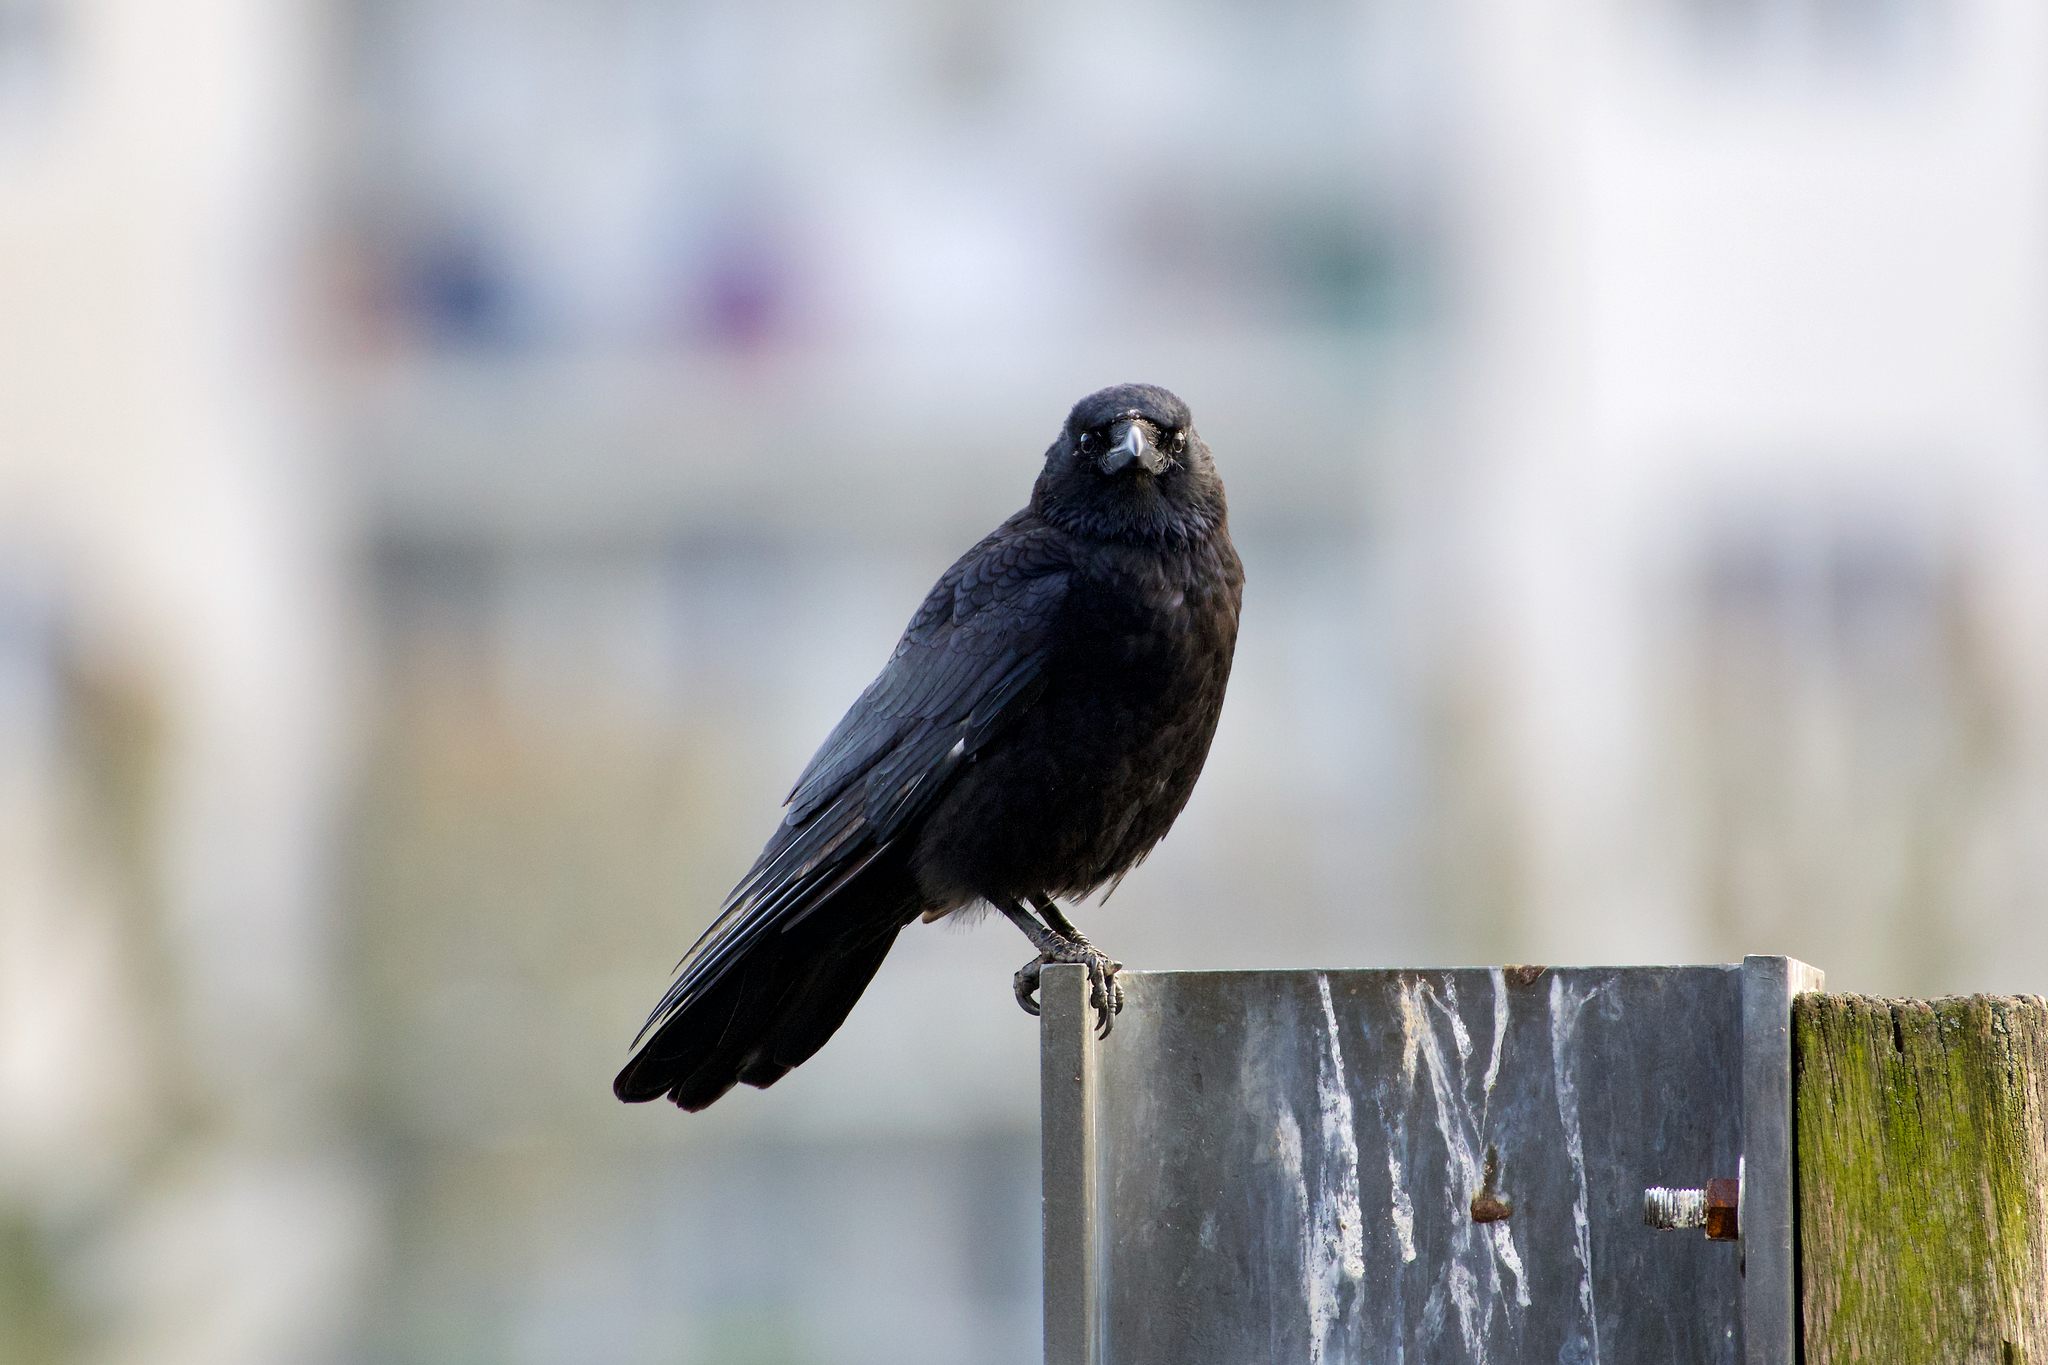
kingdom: Animalia
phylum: Chordata
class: Aves
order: Passeriformes
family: Corvidae
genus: Corvus
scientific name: Corvus corone
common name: Carrion crow
